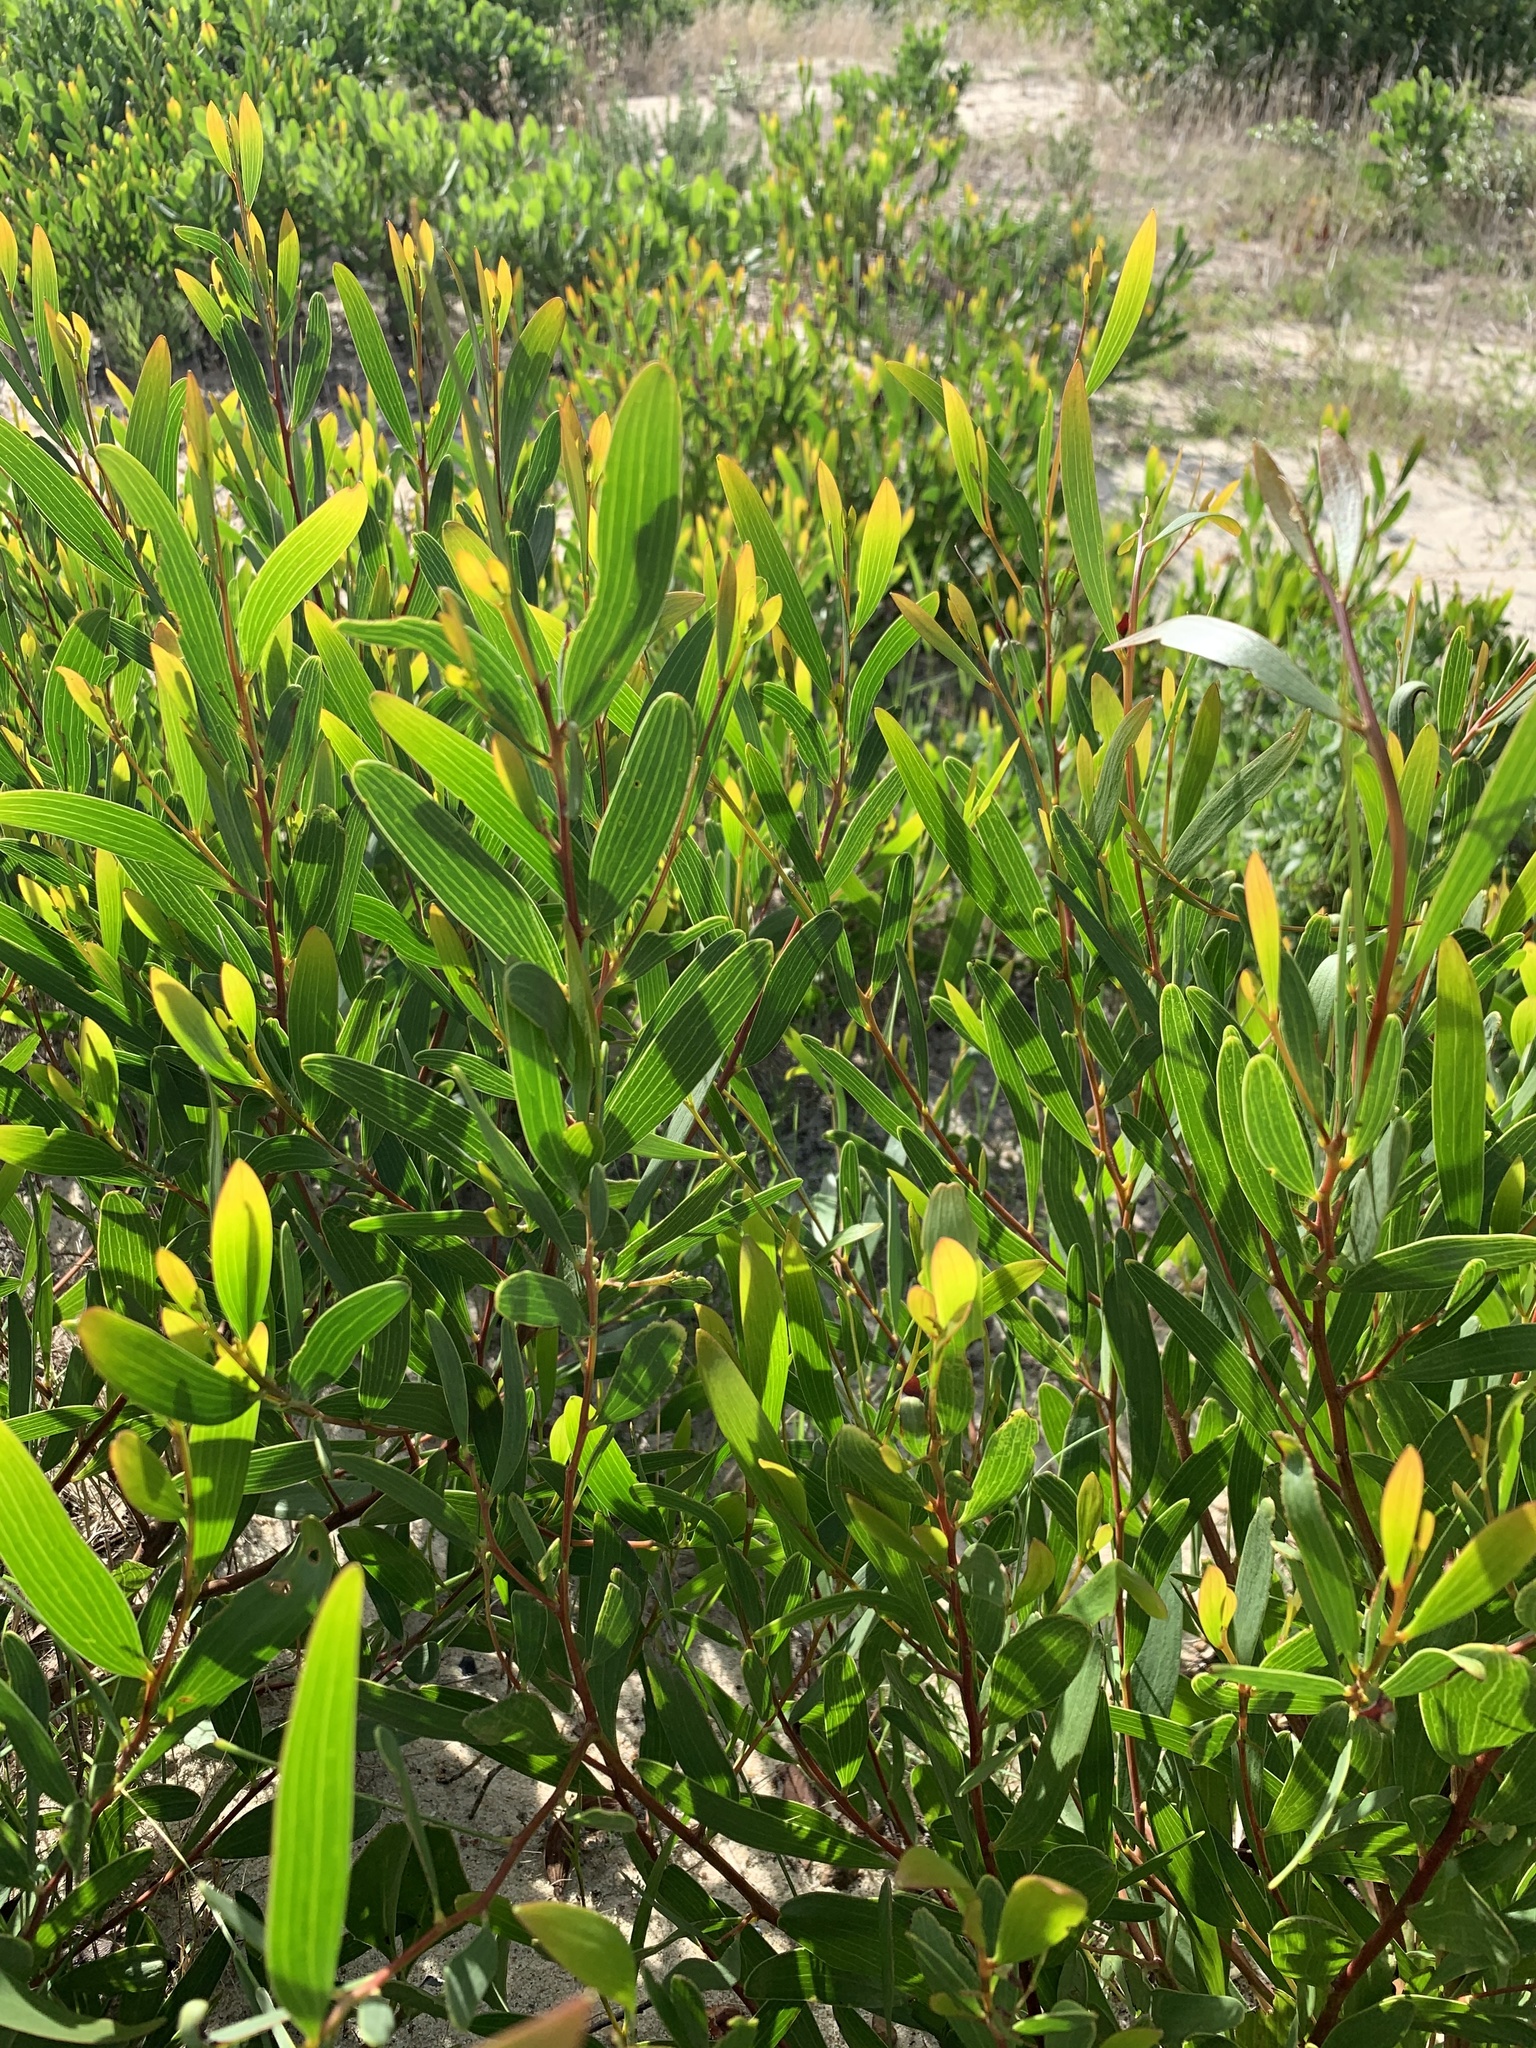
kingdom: Plantae
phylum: Tracheophyta
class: Magnoliopsida
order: Fabales
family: Fabaceae
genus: Acacia
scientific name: Acacia cyclops
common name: Coastal wattle
